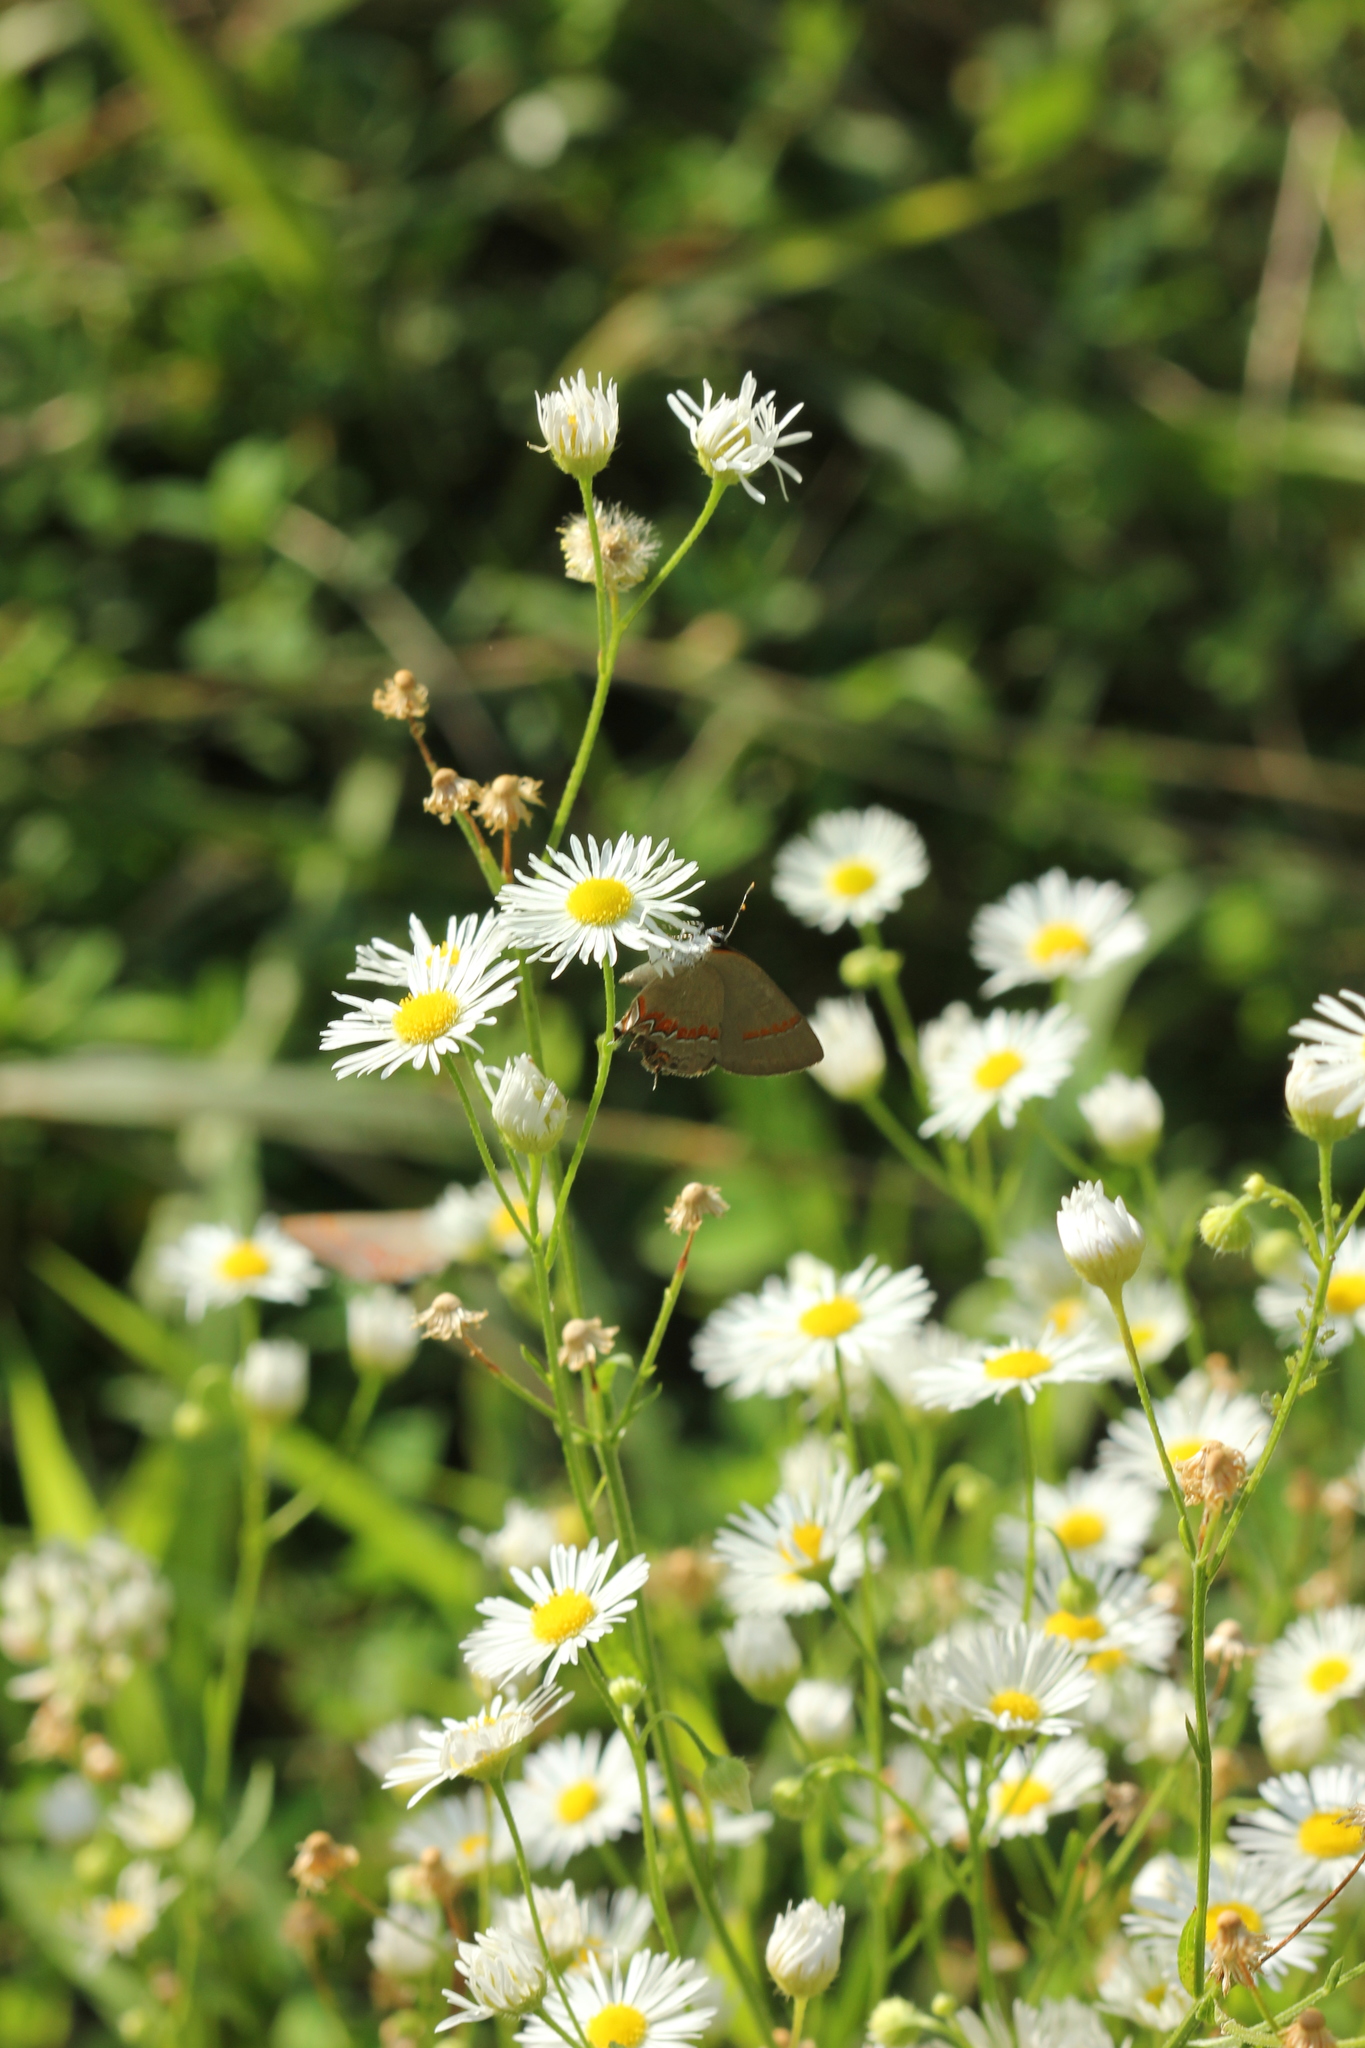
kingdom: Animalia
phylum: Arthropoda
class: Insecta
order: Lepidoptera
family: Lycaenidae
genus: Calycopis
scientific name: Calycopis cecrops
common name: Red-banded hairstreak
